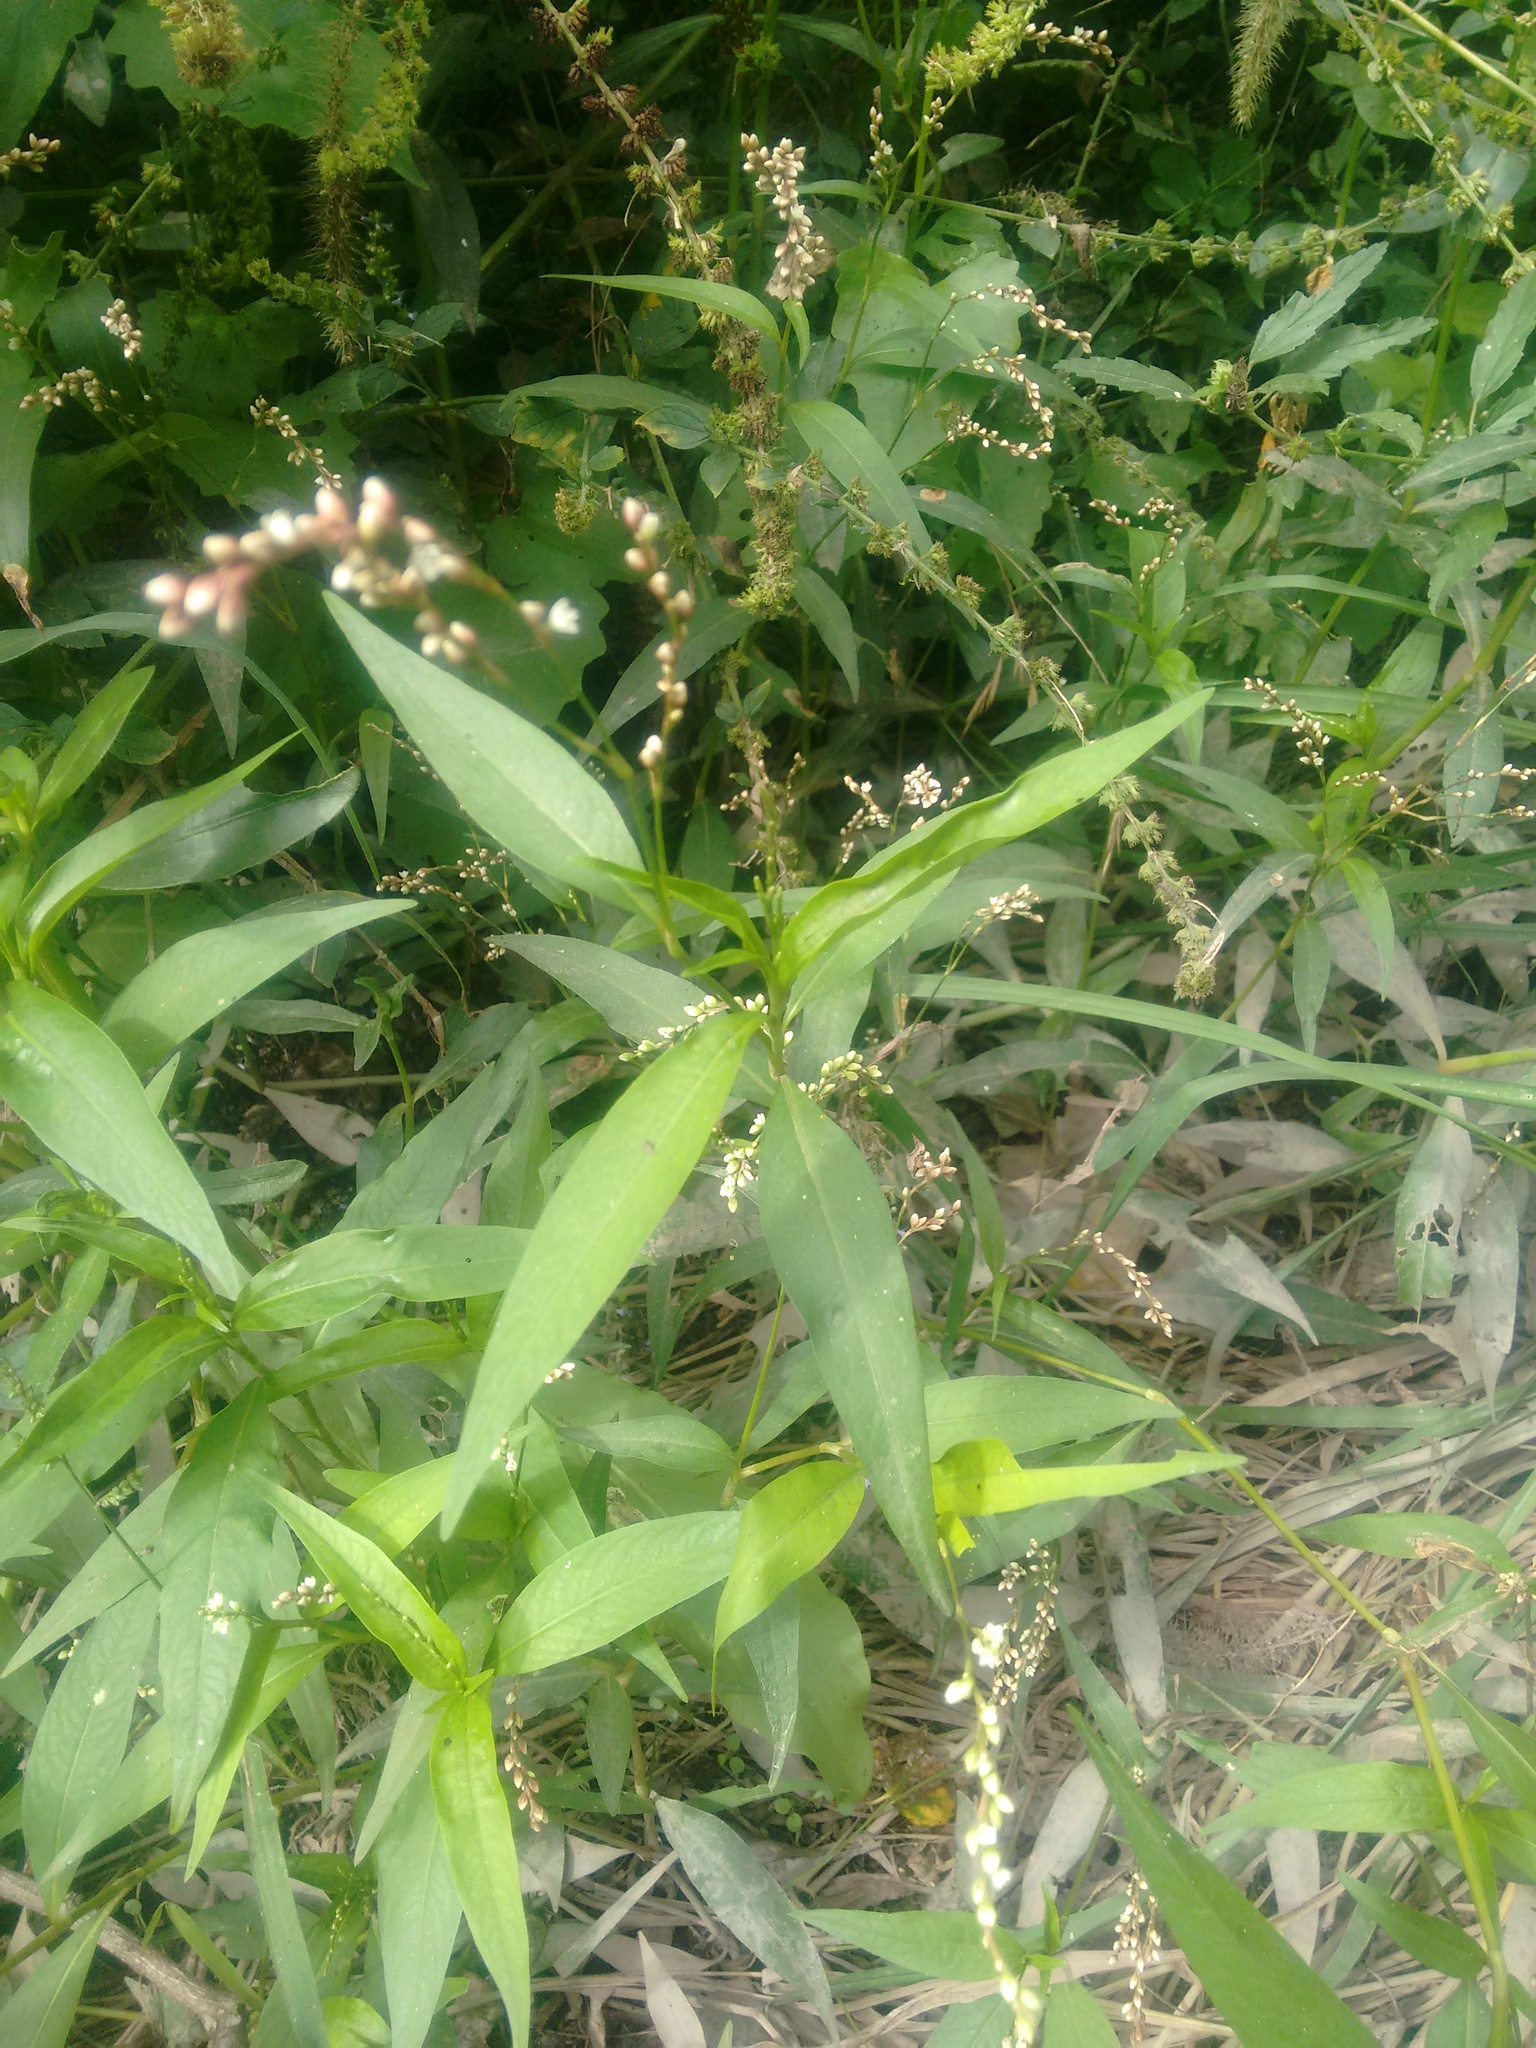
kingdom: Plantae
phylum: Tracheophyta
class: Magnoliopsida
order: Caryophyllales
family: Polygonaceae
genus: Persicaria
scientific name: Persicaria punctata
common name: Dotted smartweed
